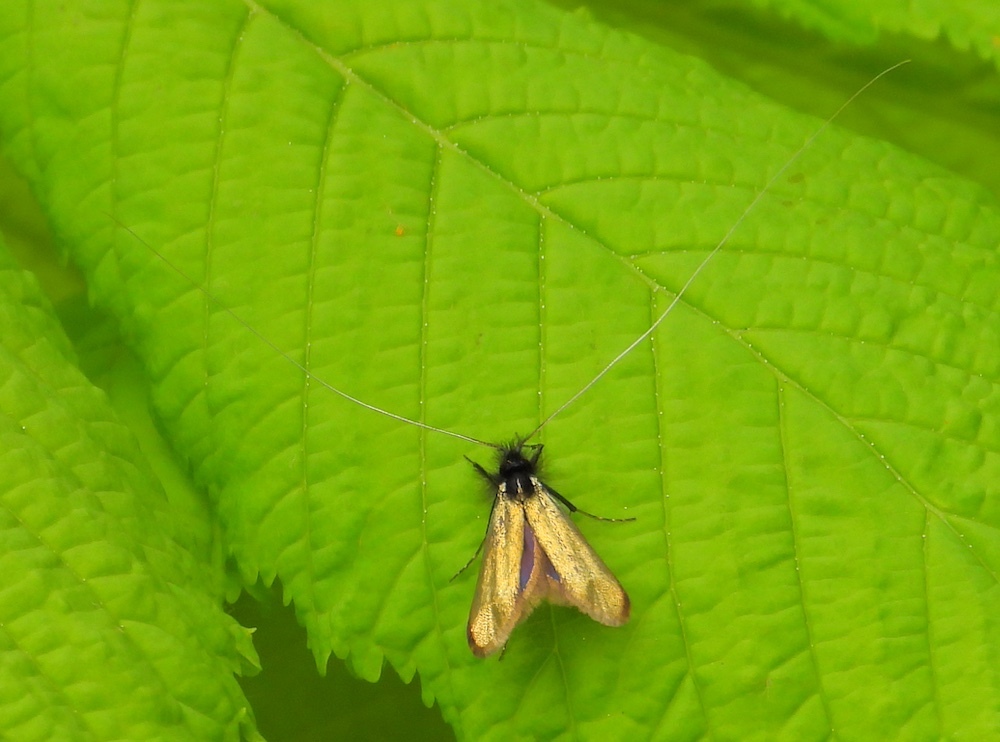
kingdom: Animalia
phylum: Arthropoda
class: Insecta
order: Lepidoptera
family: Adelidae
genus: Adela
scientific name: Adela viridella
